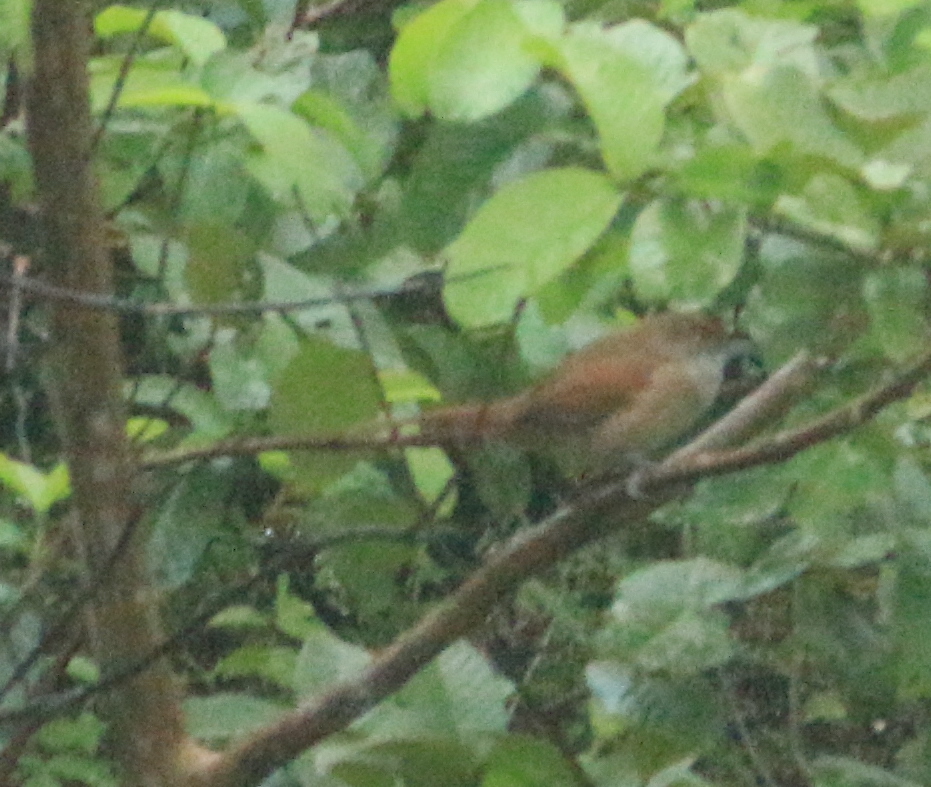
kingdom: Animalia
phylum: Chordata
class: Aves
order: Passeriformes
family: Furnariidae
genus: Phacellodomus
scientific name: Phacellodomus ruber
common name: Greater thornbird
